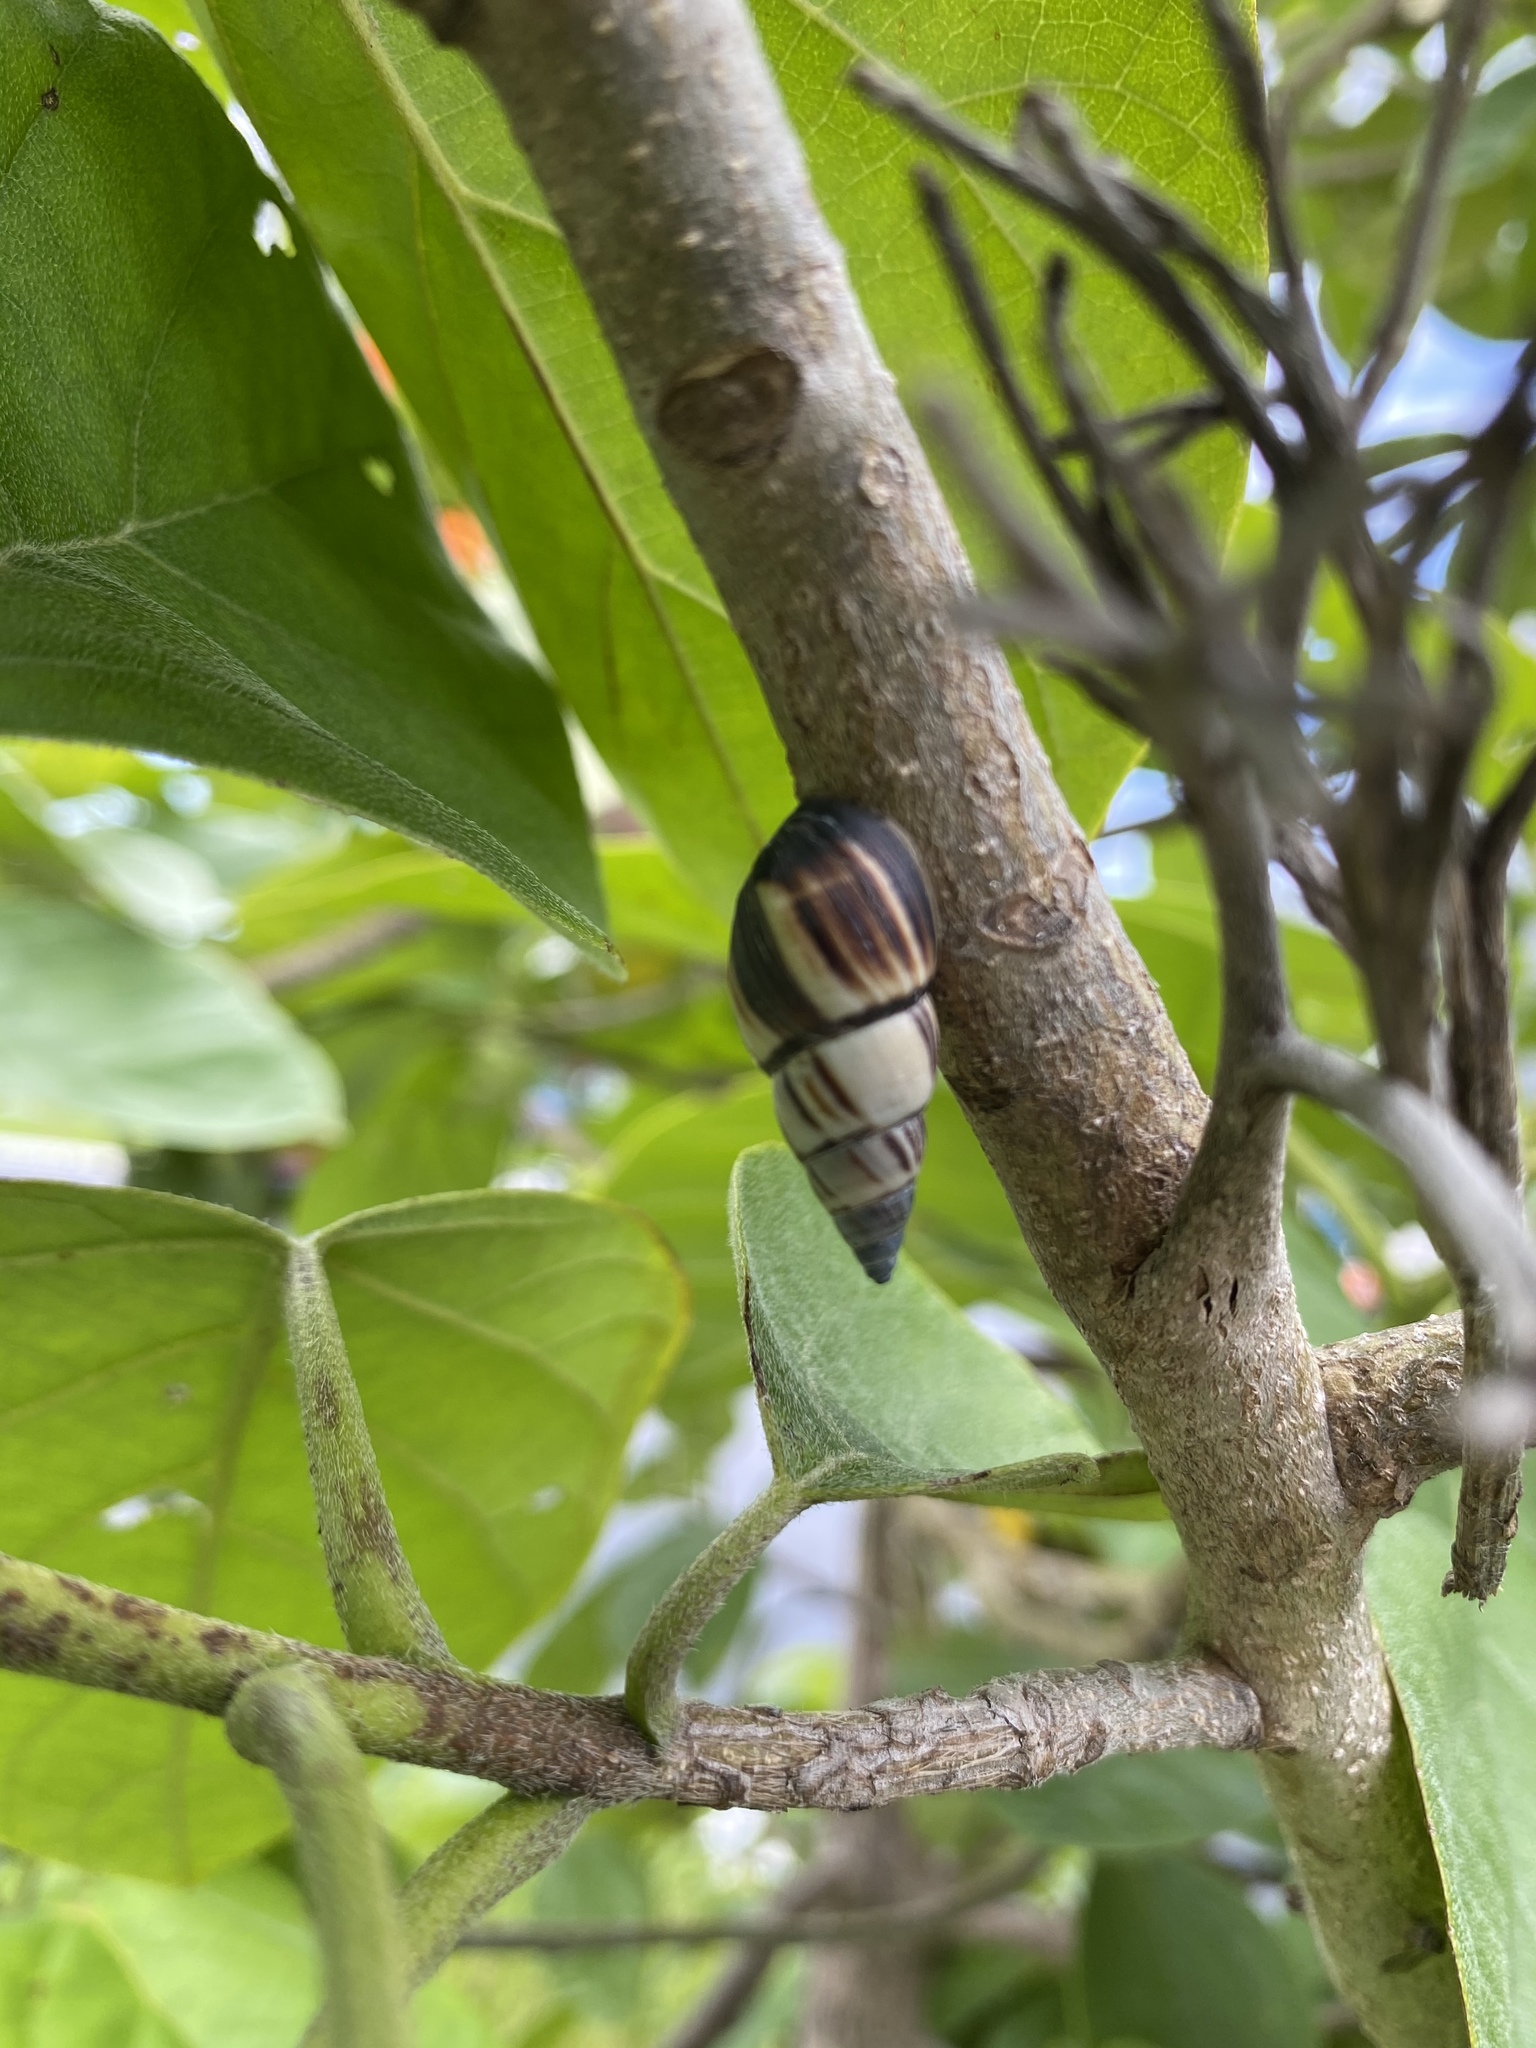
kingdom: Animalia
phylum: Mollusca
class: Gastropoda
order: Stylommatophora
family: Bulimulidae
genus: Drymaeus
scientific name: Drymaeus
